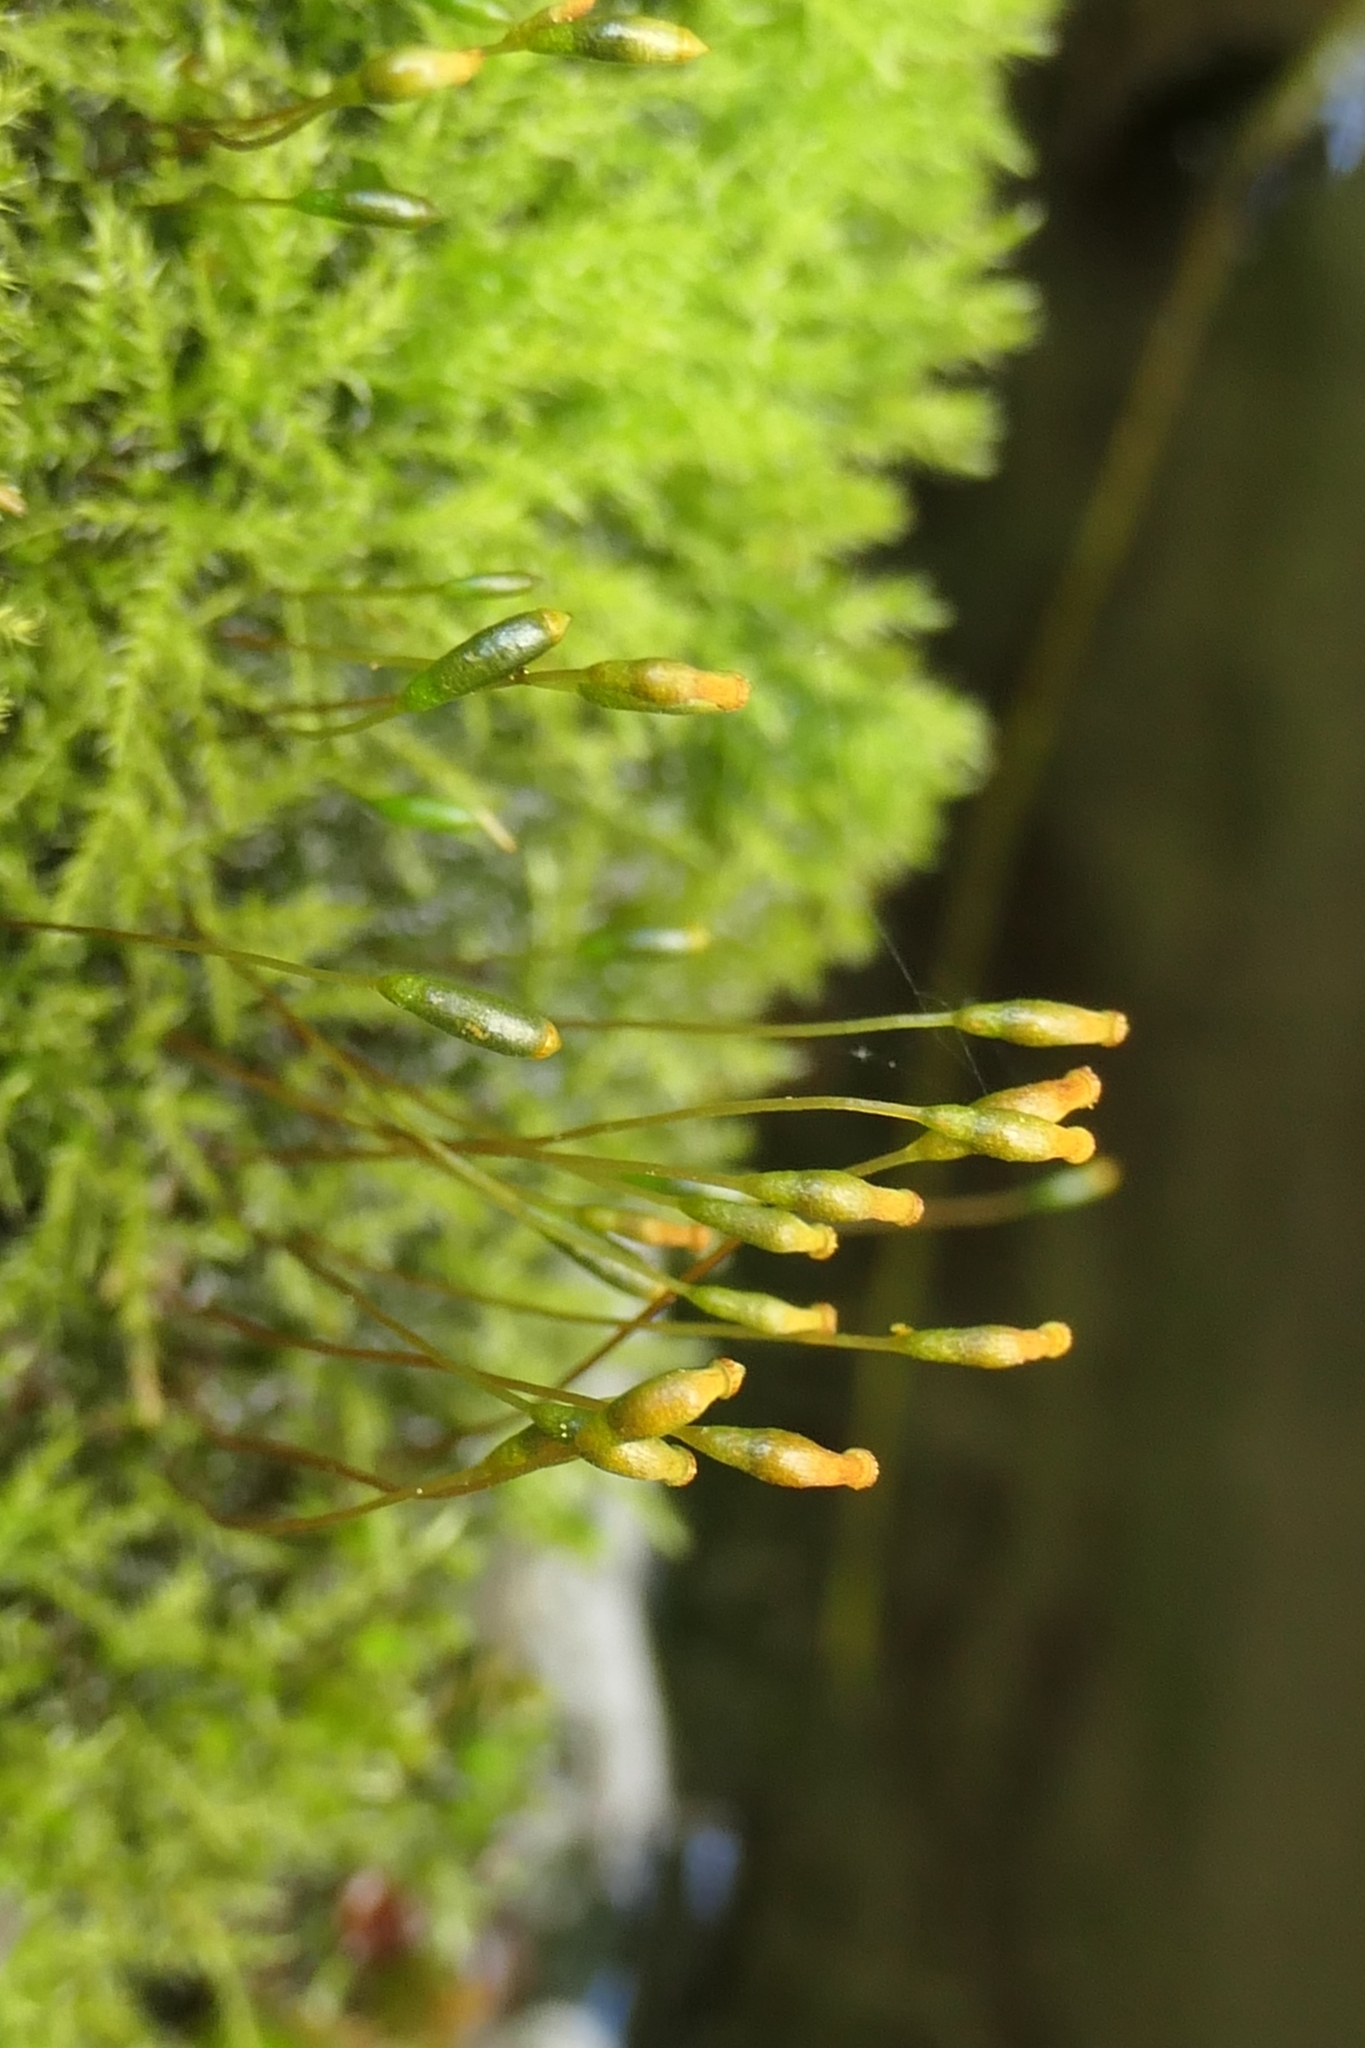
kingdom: Plantae
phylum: Bryophyta
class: Bryopsida
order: Hypnales
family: Amblystegiaceae
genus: Amblystegium
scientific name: Amblystegium serpens
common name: Jurkatzka's feather moss
